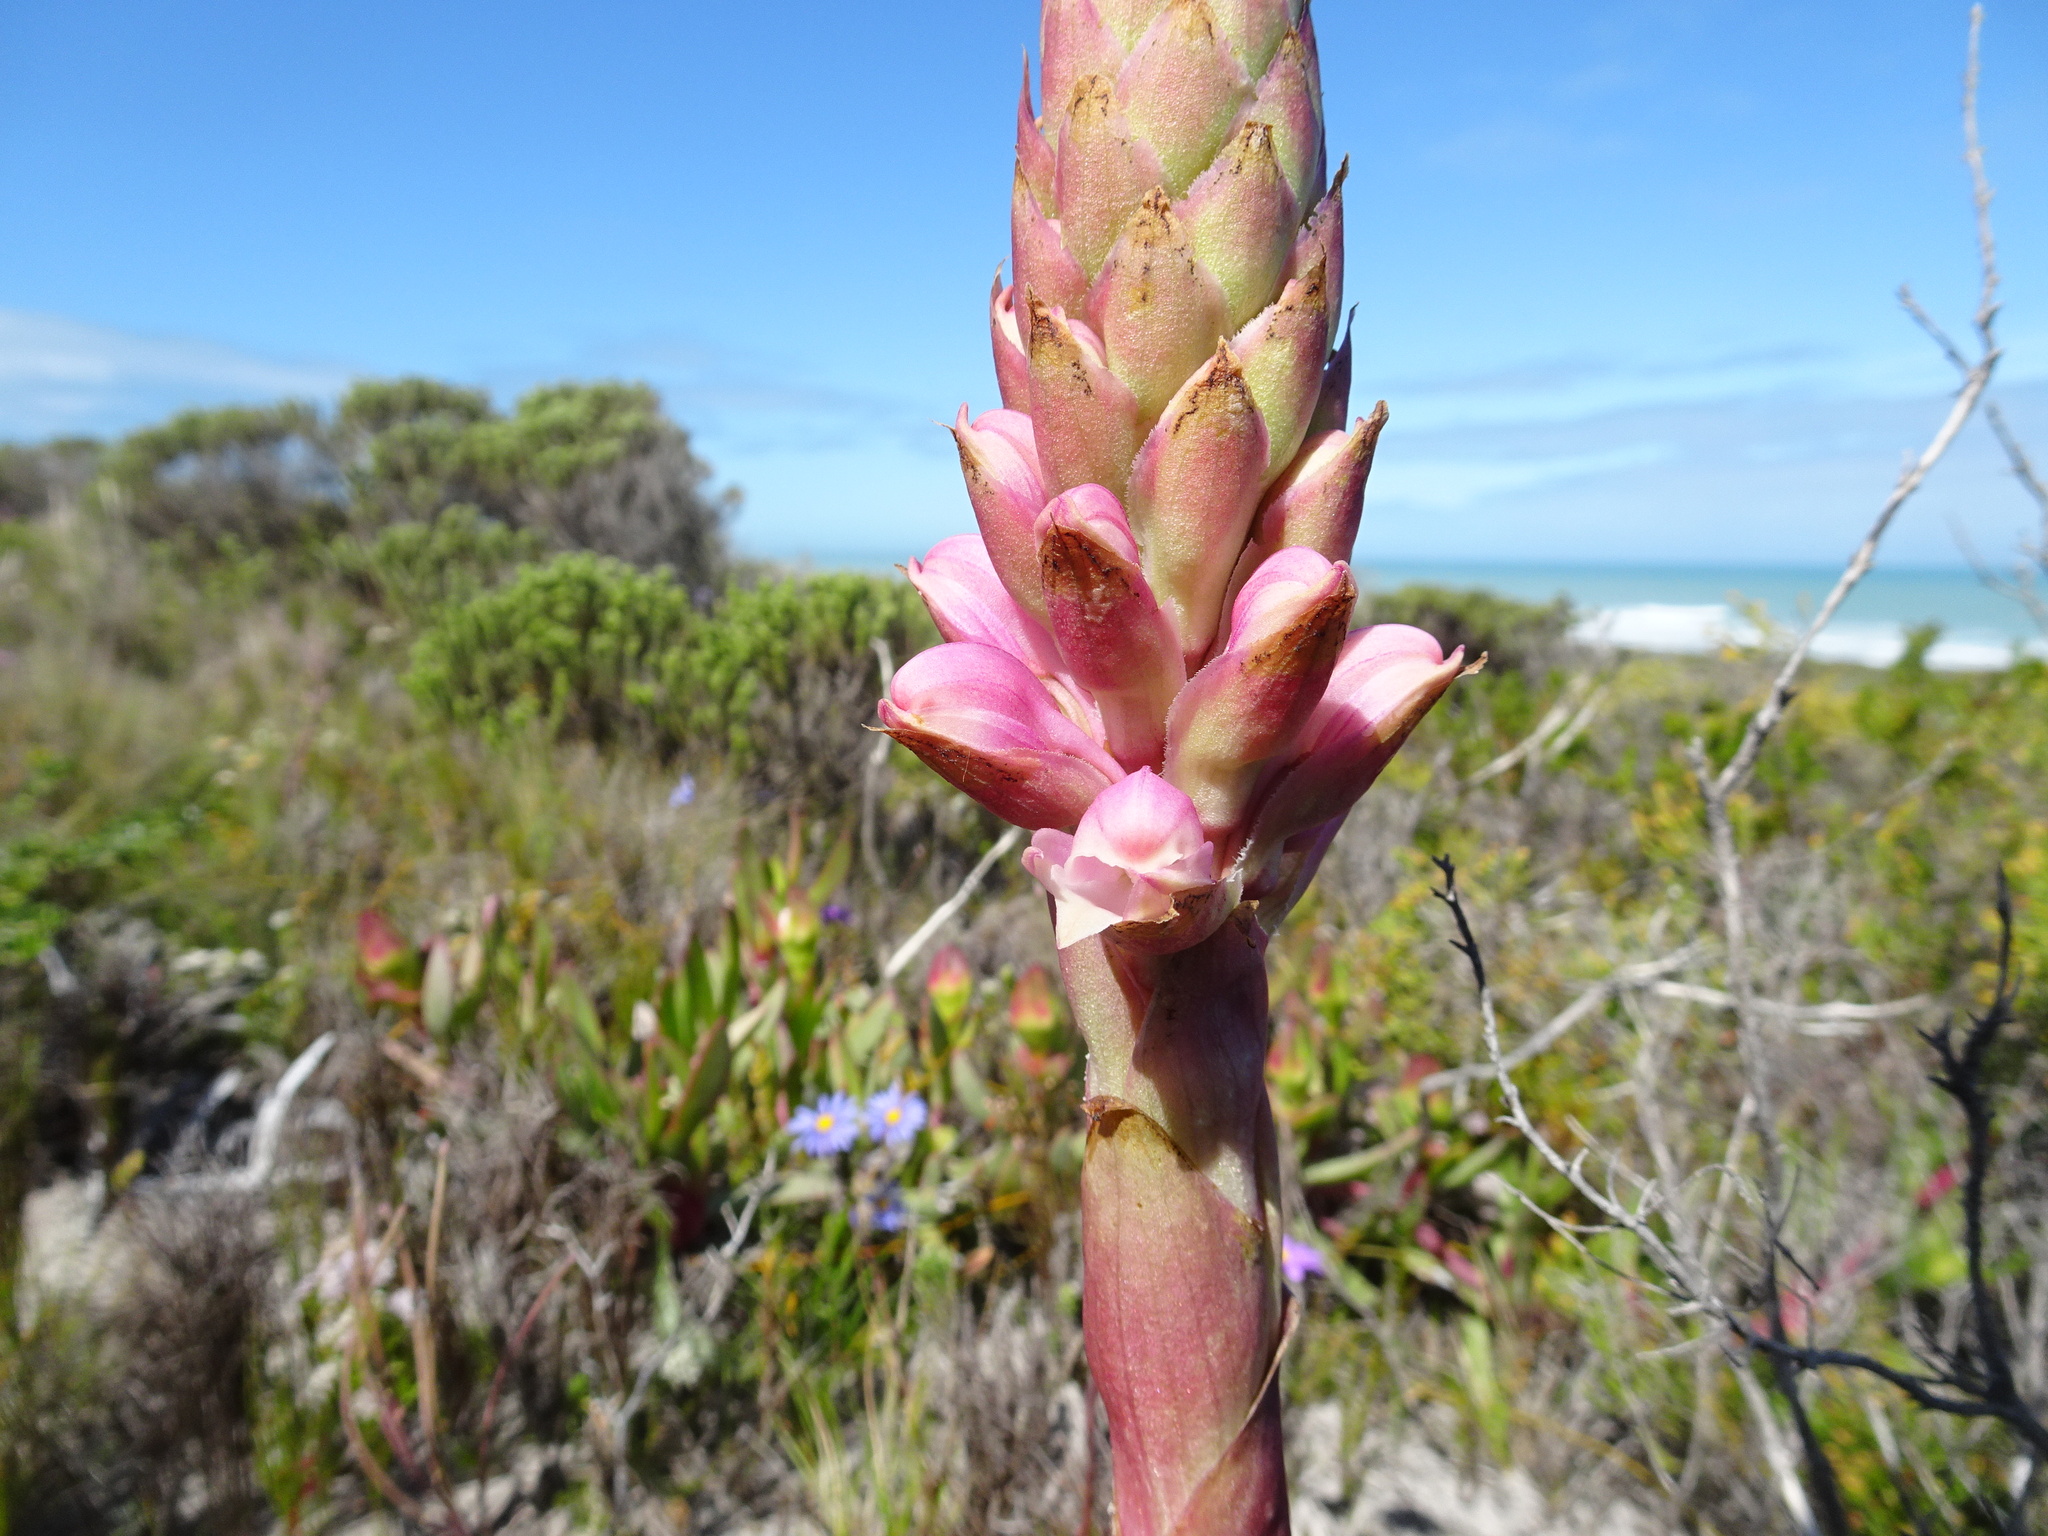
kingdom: Plantae
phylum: Tracheophyta
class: Liliopsida
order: Asparagales
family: Orchidaceae
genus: Satyrium
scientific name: Satyrium carneum
